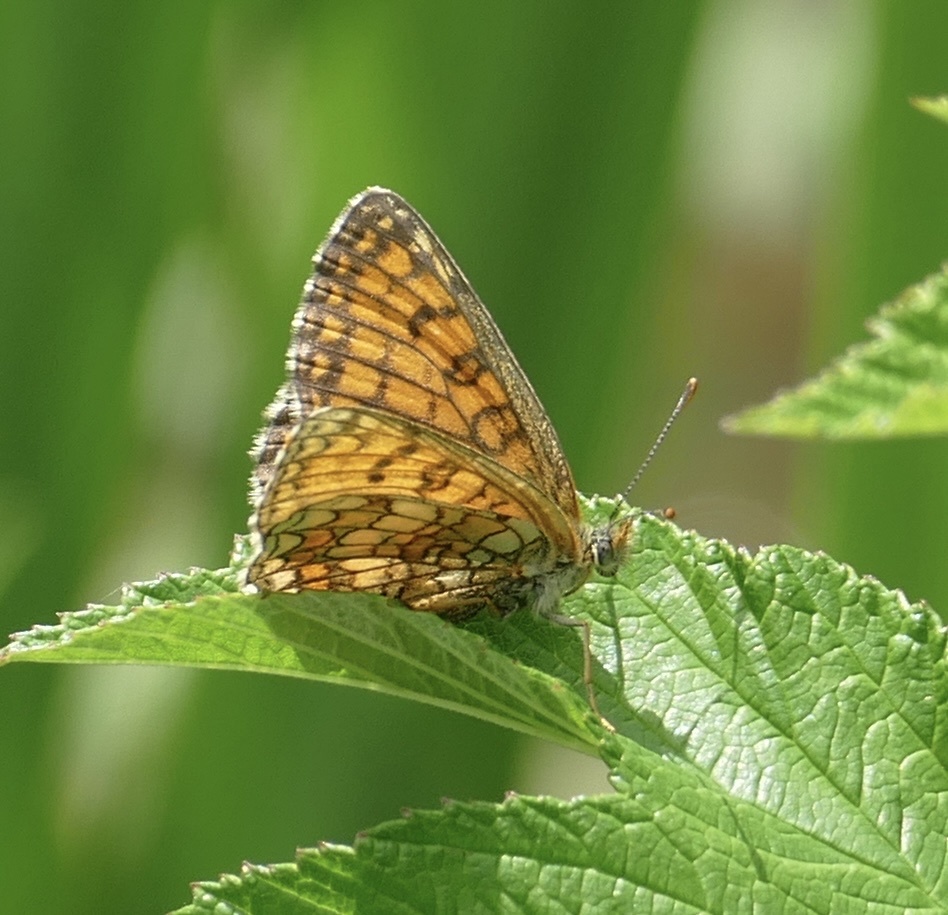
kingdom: Animalia
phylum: Arthropoda
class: Insecta
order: Lepidoptera
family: Nymphalidae
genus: Mellicta
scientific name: Mellicta parthenoides
